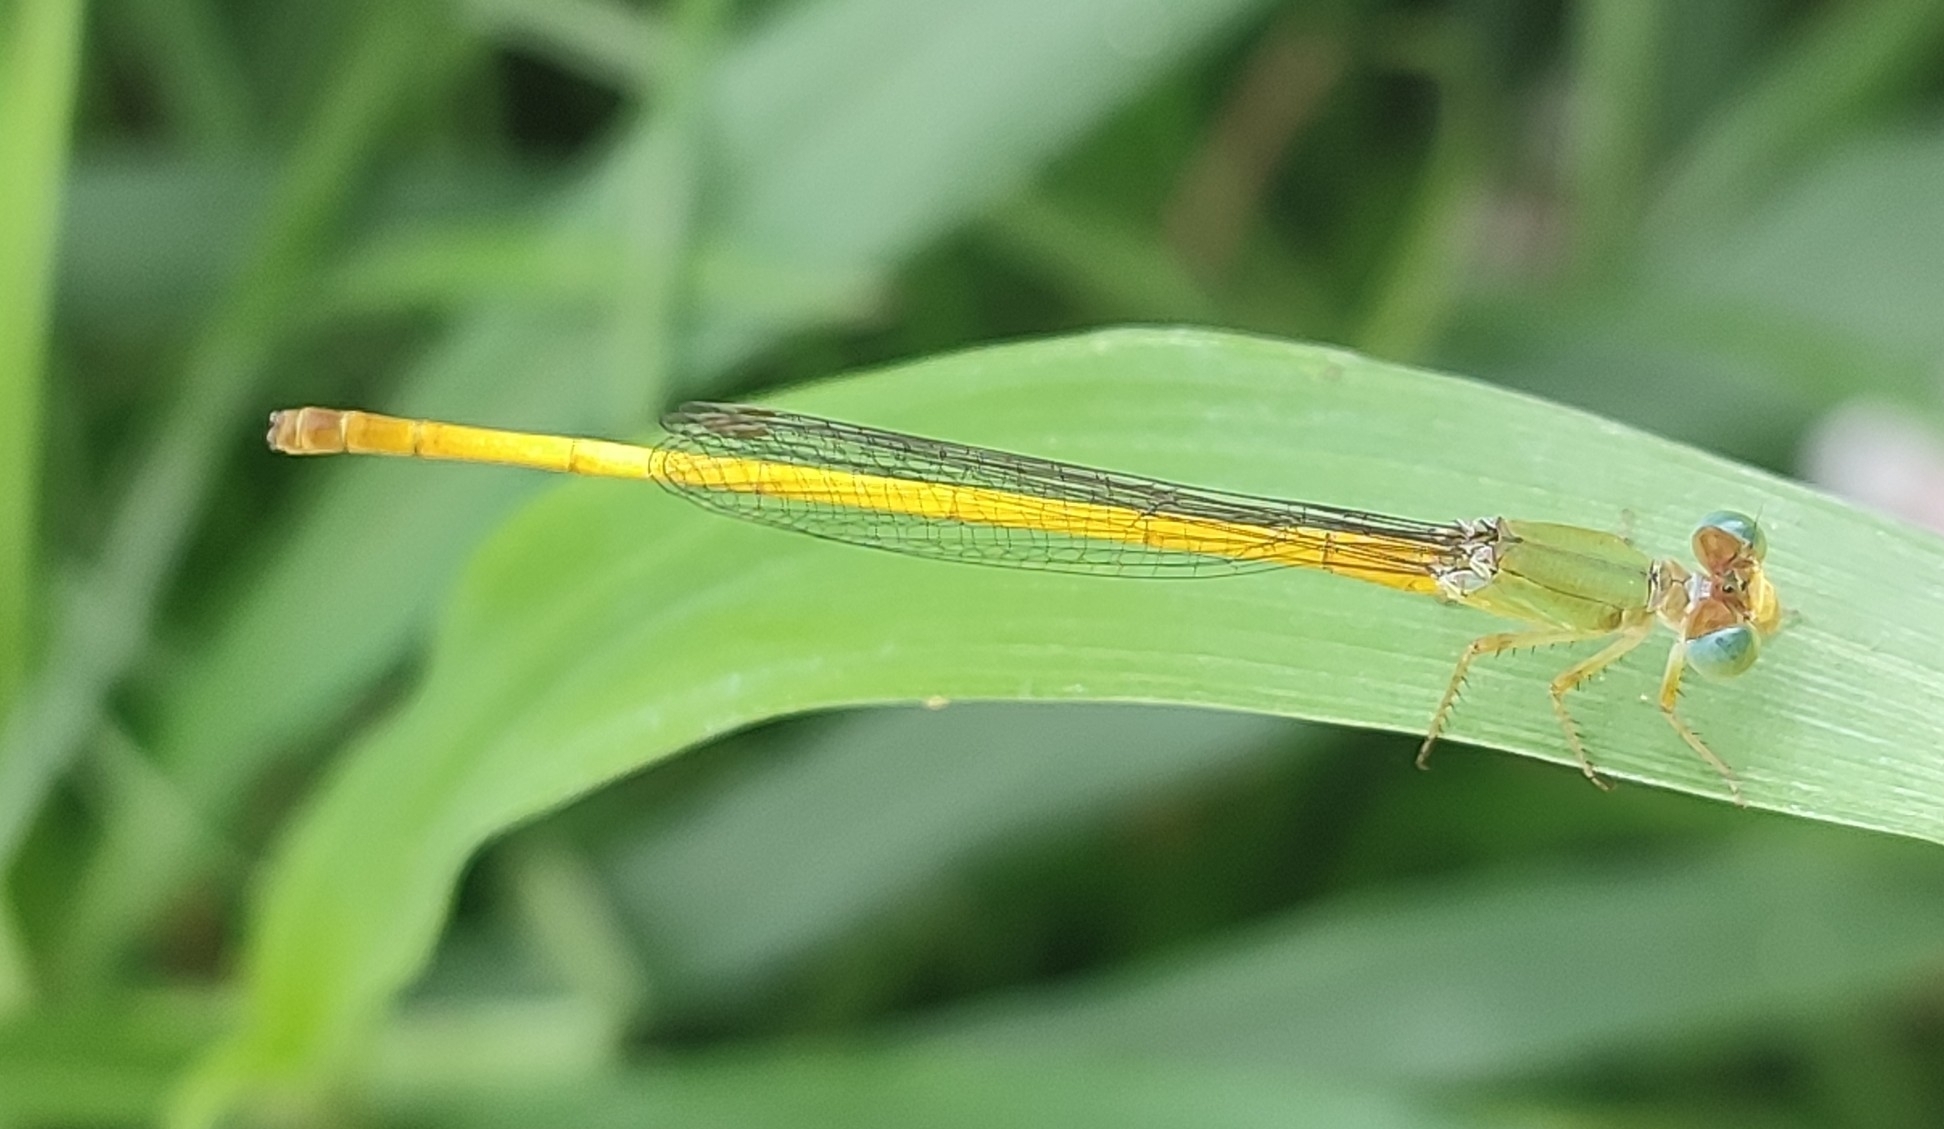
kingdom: Animalia
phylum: Arthropoda
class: Insecta
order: Odonata
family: Coenagrionidae
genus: Ceriagrion
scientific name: Ceriagrion coromandelianum
